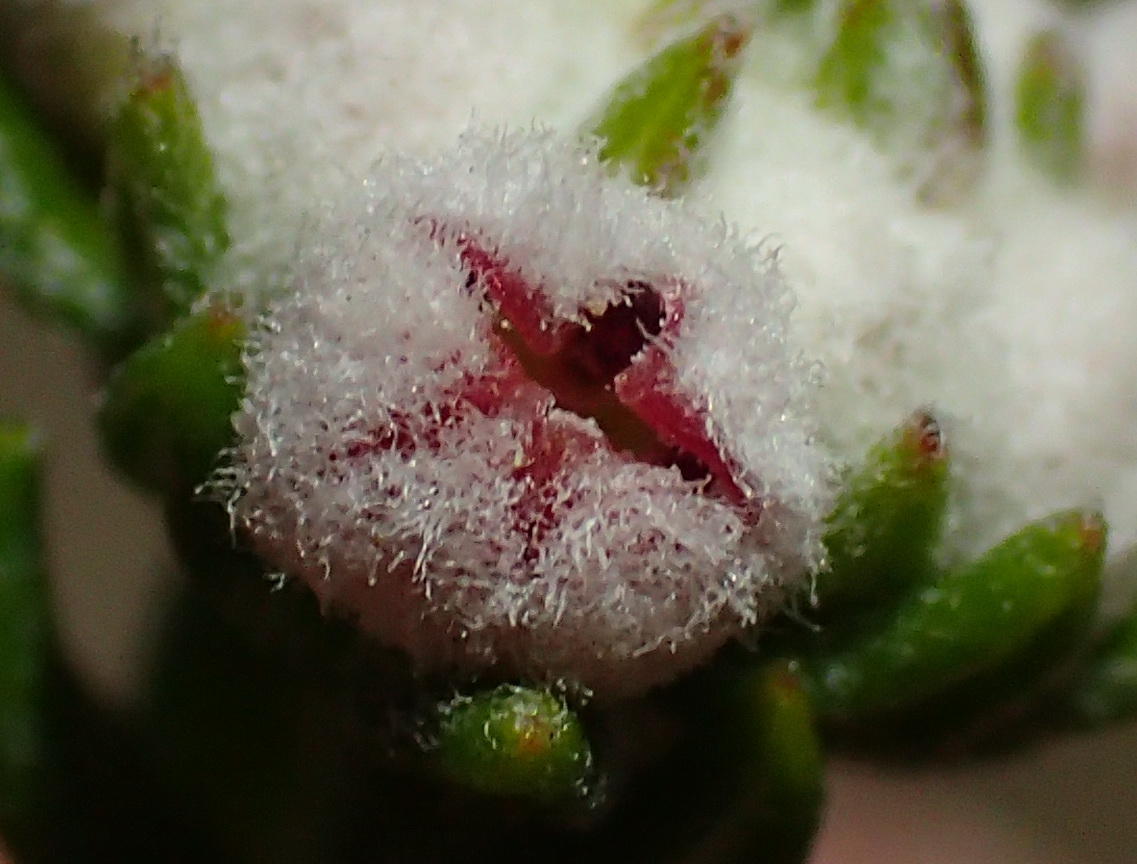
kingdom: Plantae
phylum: Tracheophyta
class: Magnoliopsida
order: Rosales
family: Rhamnaceae
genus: Phylica
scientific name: Phylica purpurea
